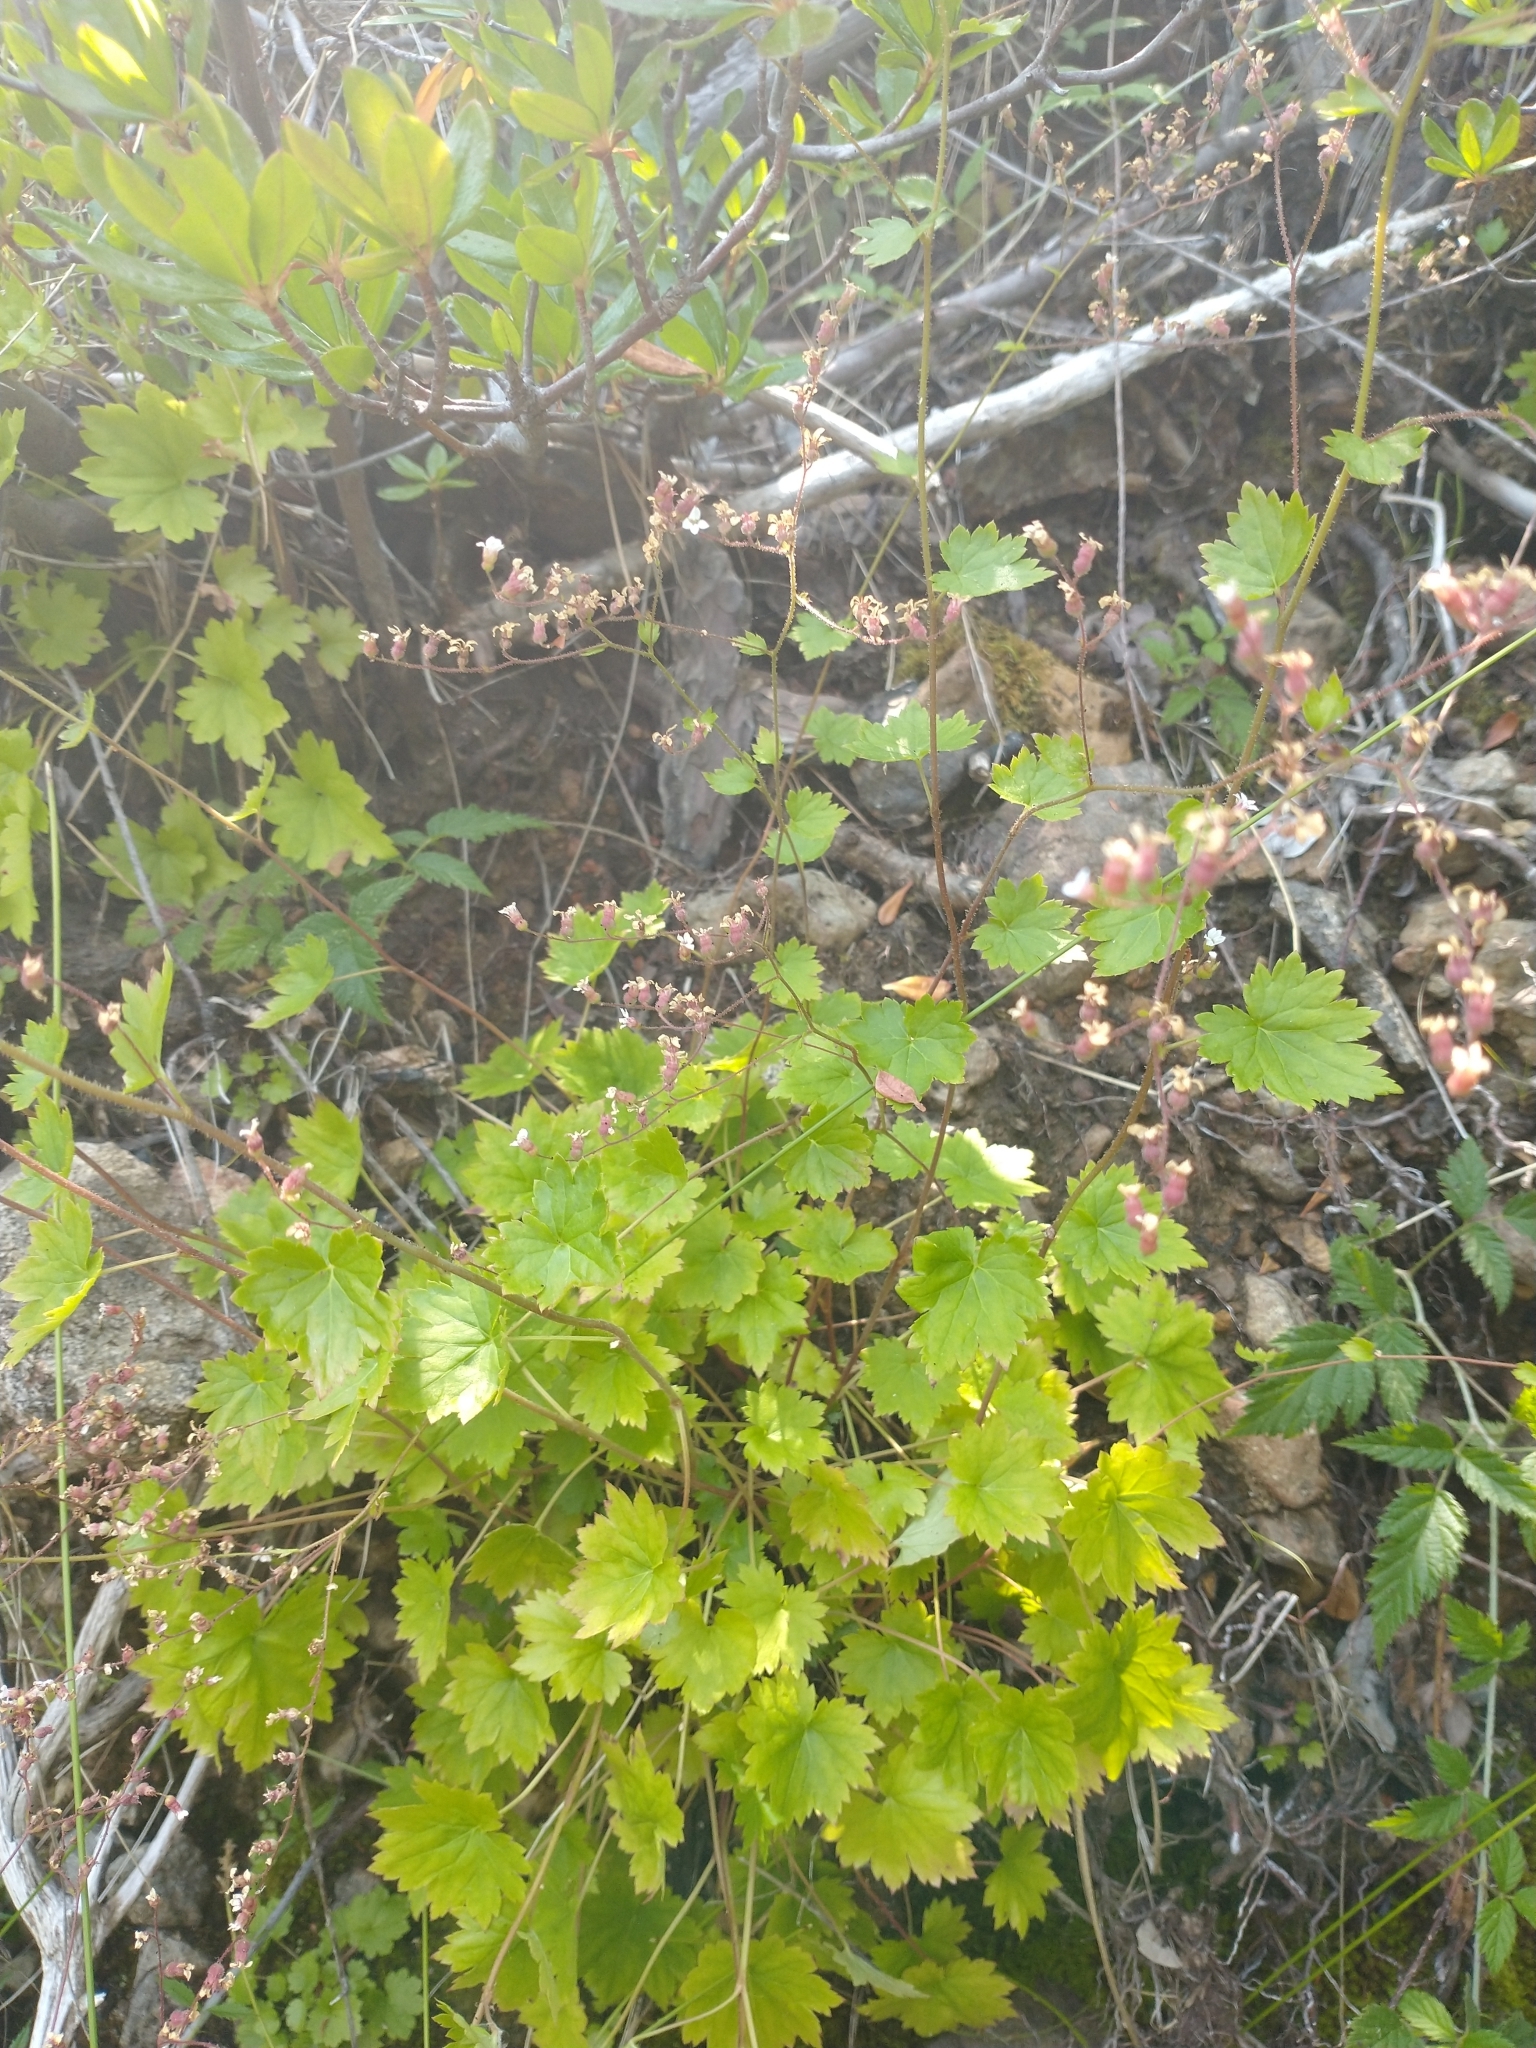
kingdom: Plantae
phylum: Tracheophyta
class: Magnoliopsida
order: Saxifragales
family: Saxifragaceae
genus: Boykinia
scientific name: Boykinia occidentalis
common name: Coast boykinia
